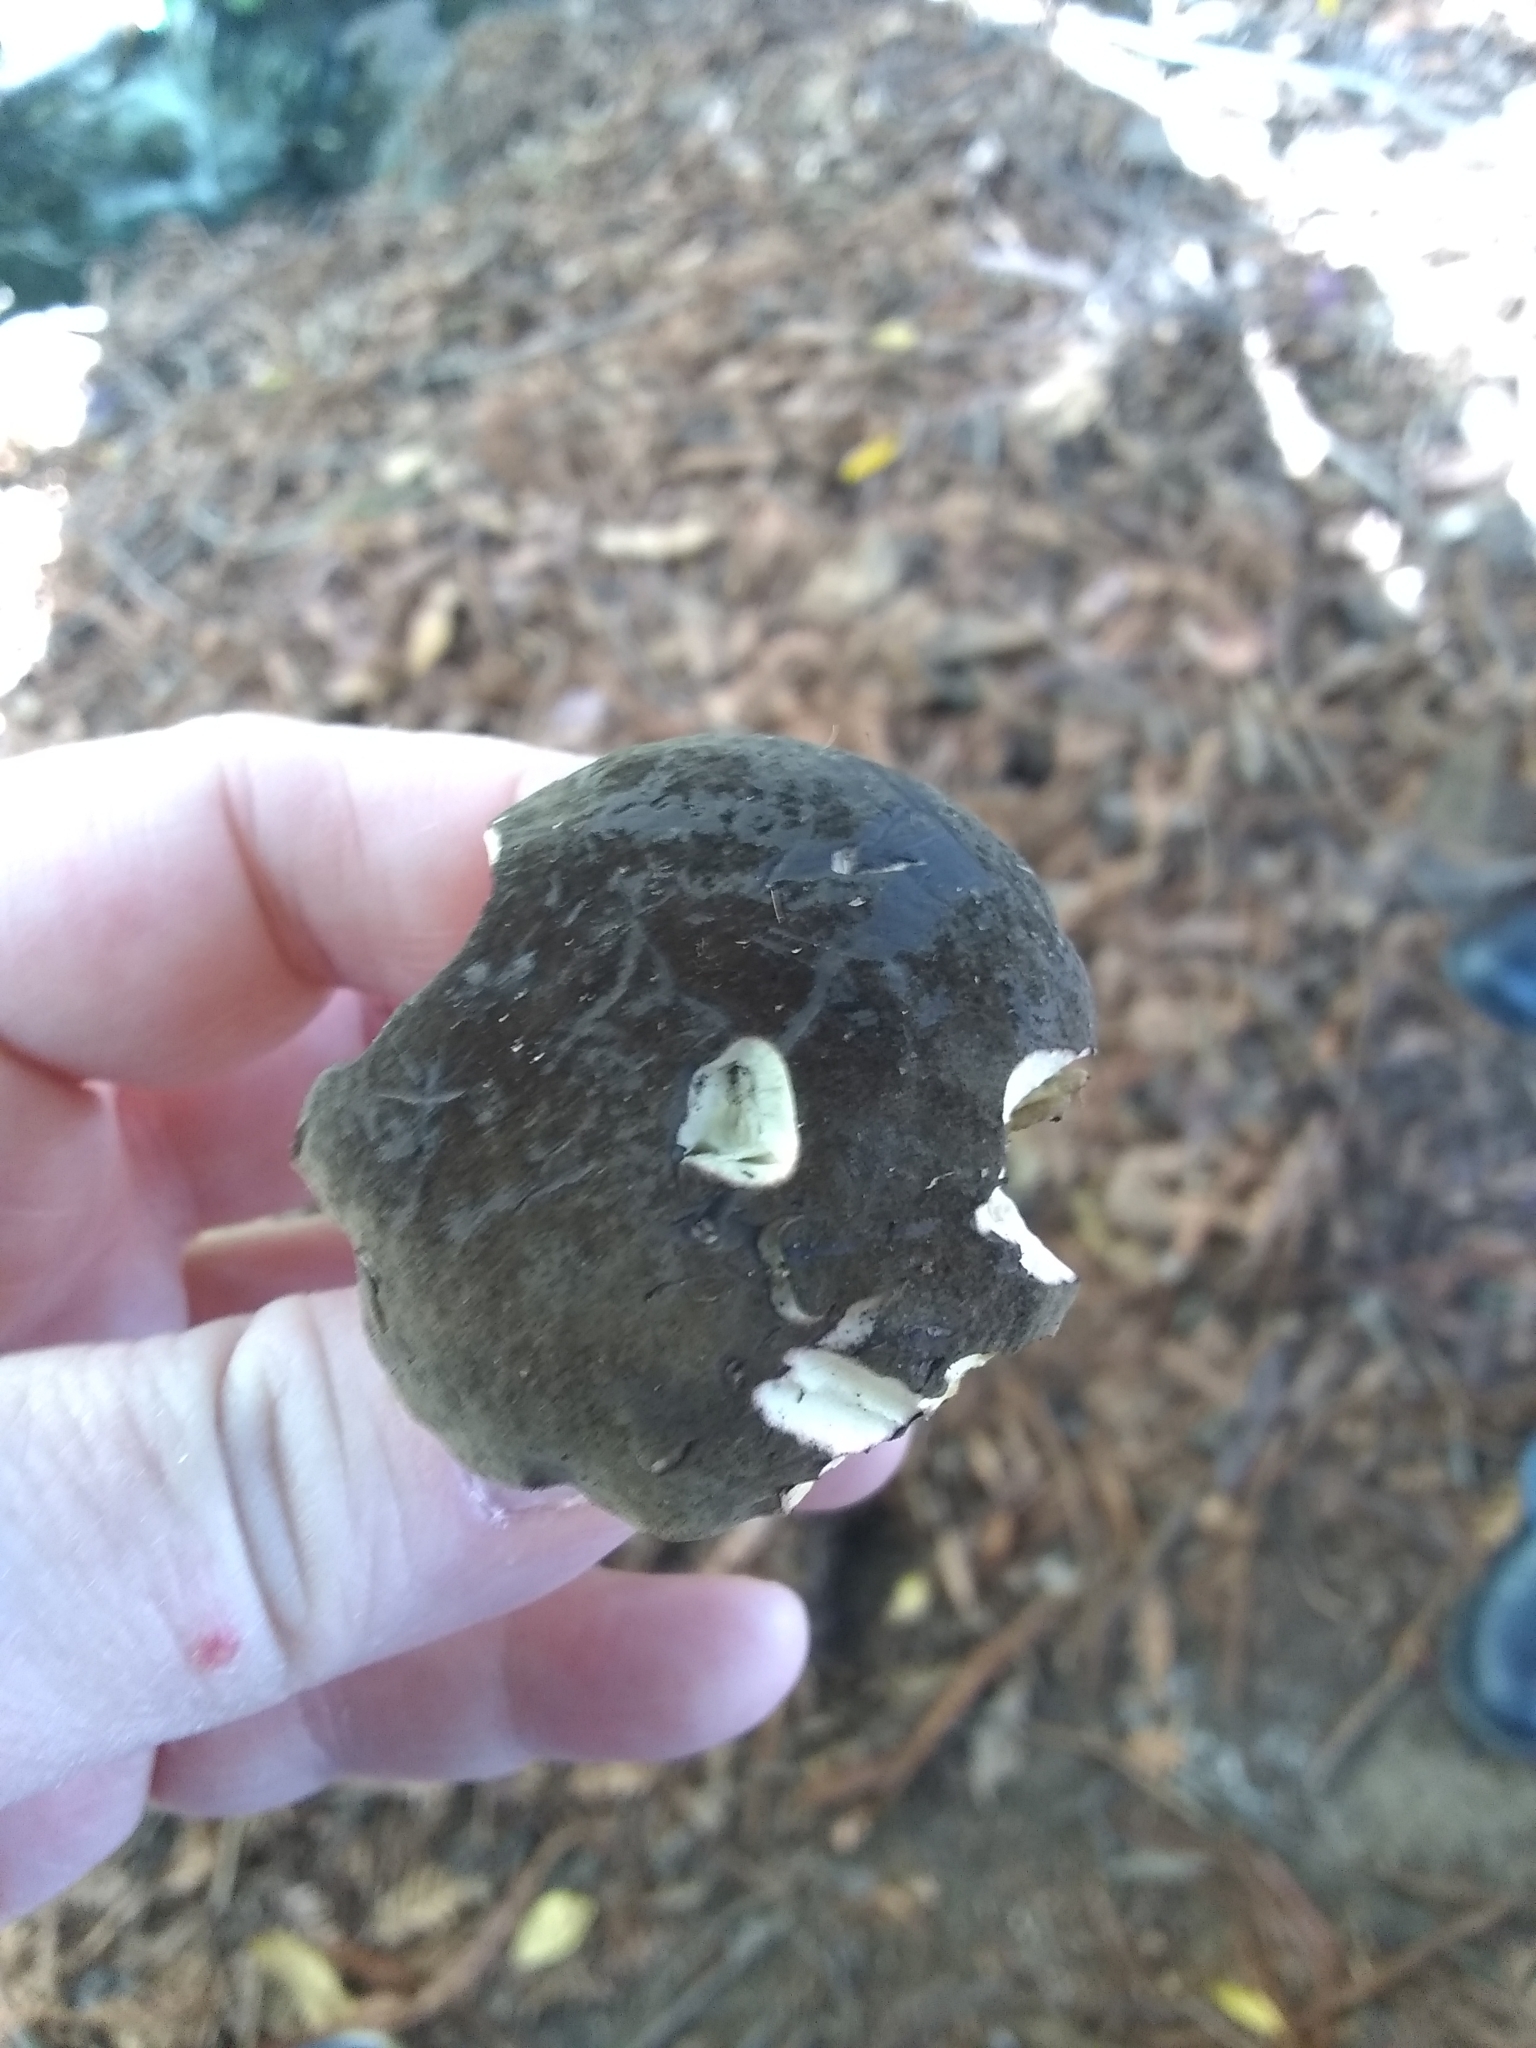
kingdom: Fungi
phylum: Basidiomycota
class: Agaricomycetes
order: Boletales
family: Boletaceae
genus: Xerocomellus
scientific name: Xerocomellus mendocinensis
